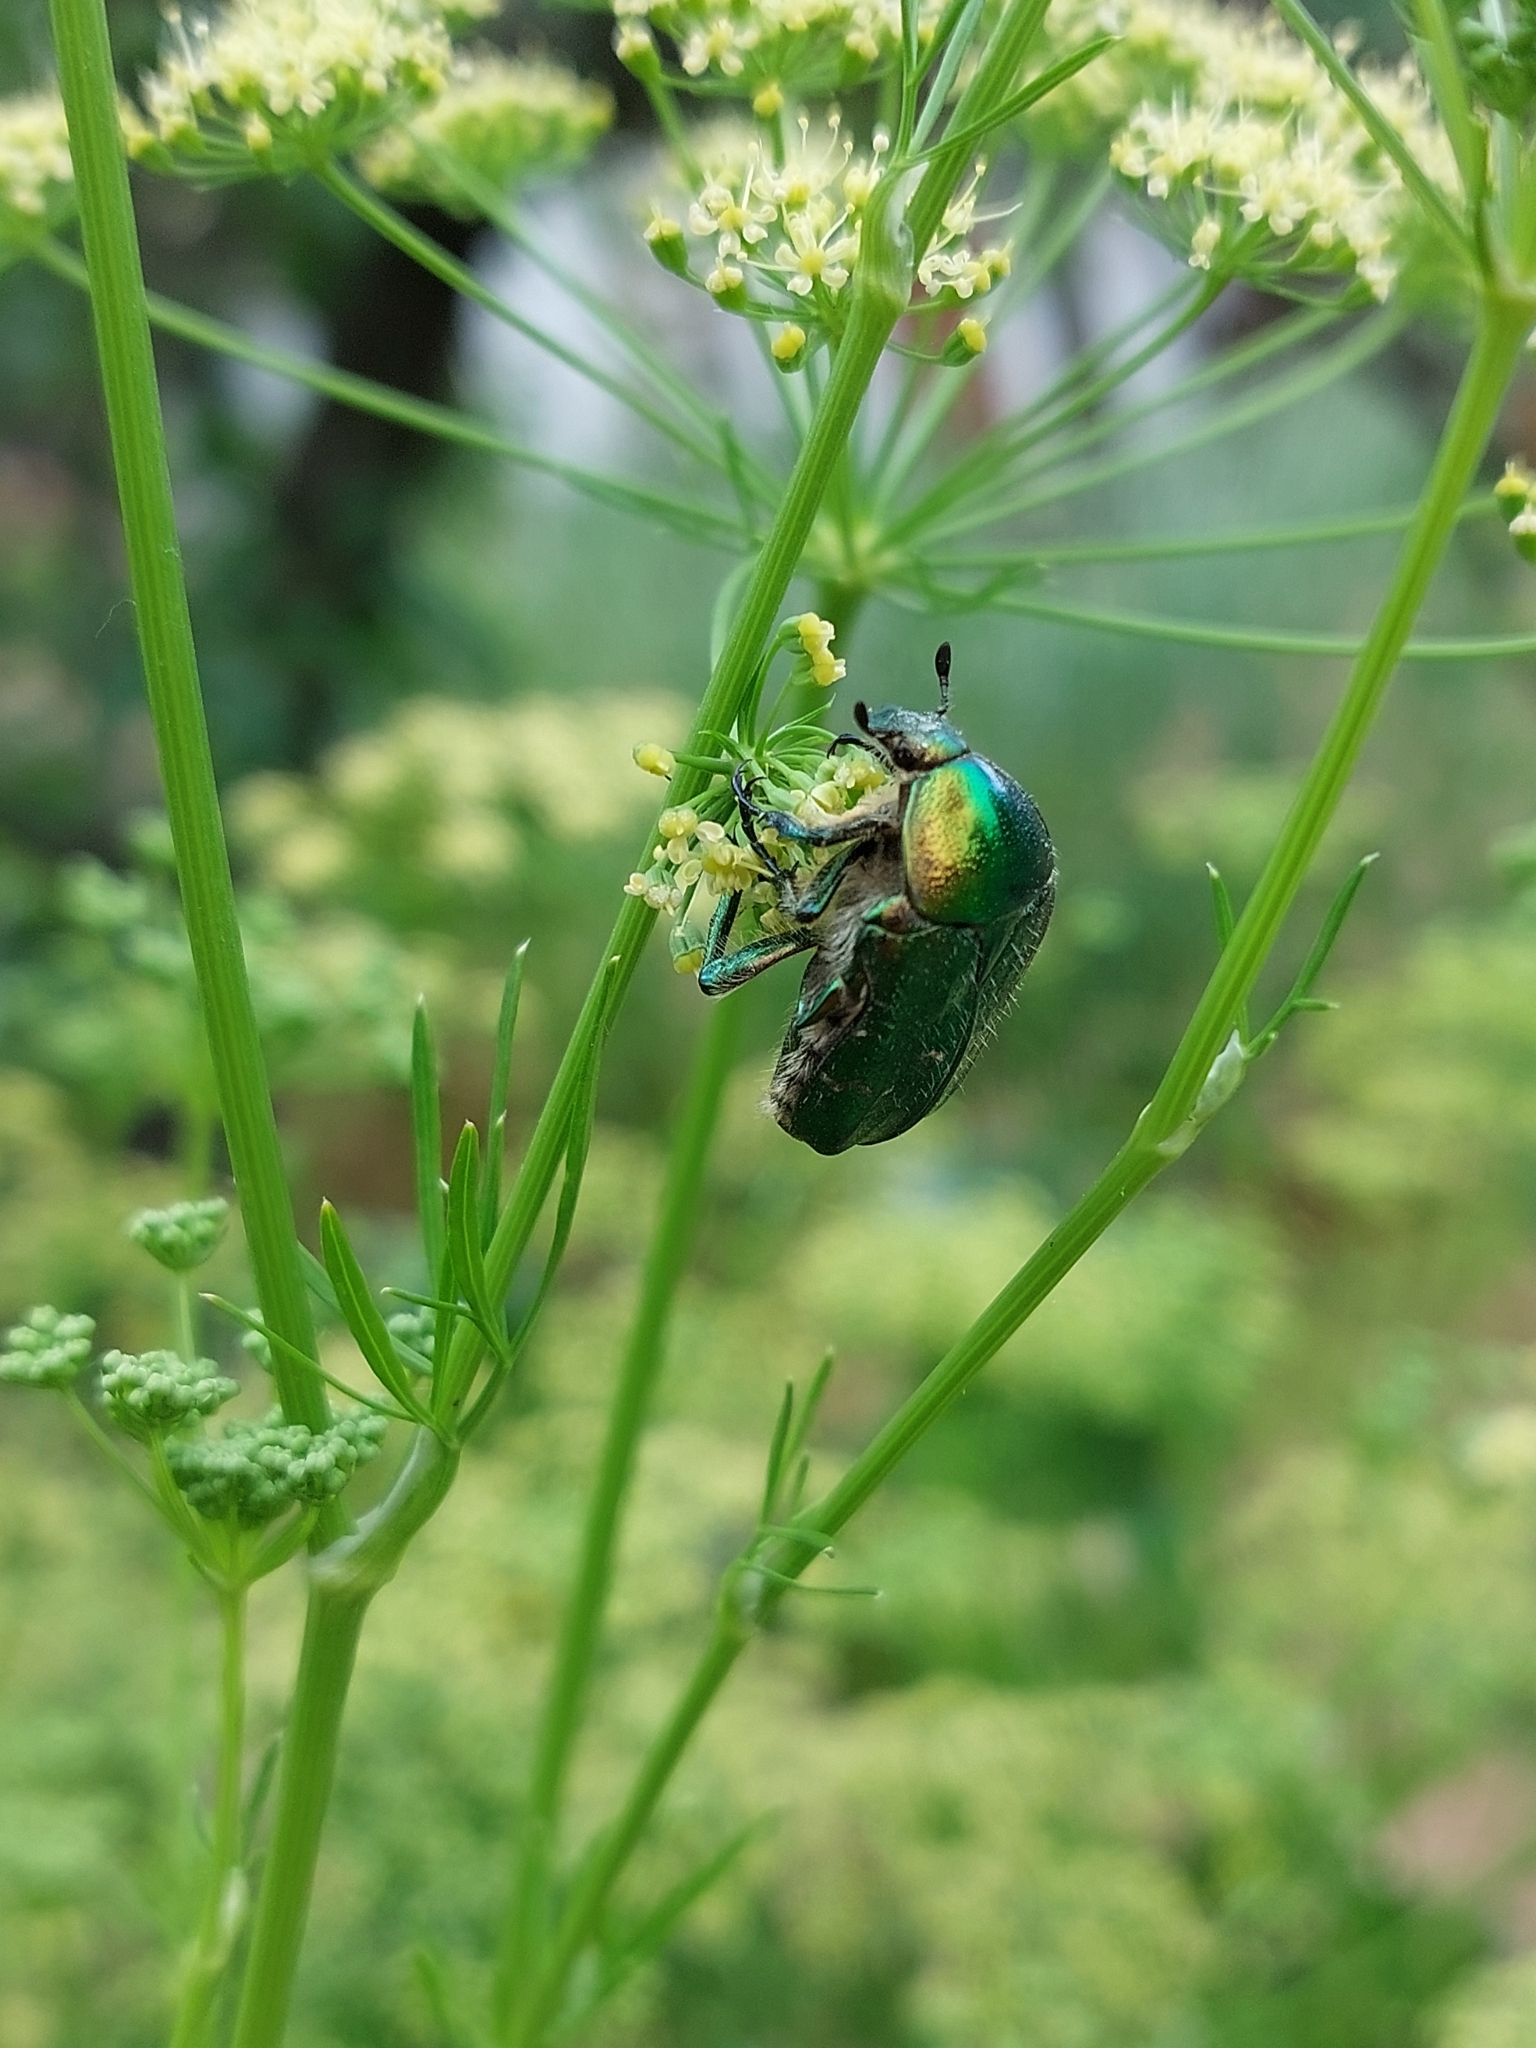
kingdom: Animalia
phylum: Arthropoda
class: Insecta
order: Coleoptera
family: Scarabaeidae
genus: Cetonia
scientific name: Cetonia aurata
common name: Rose chafer
